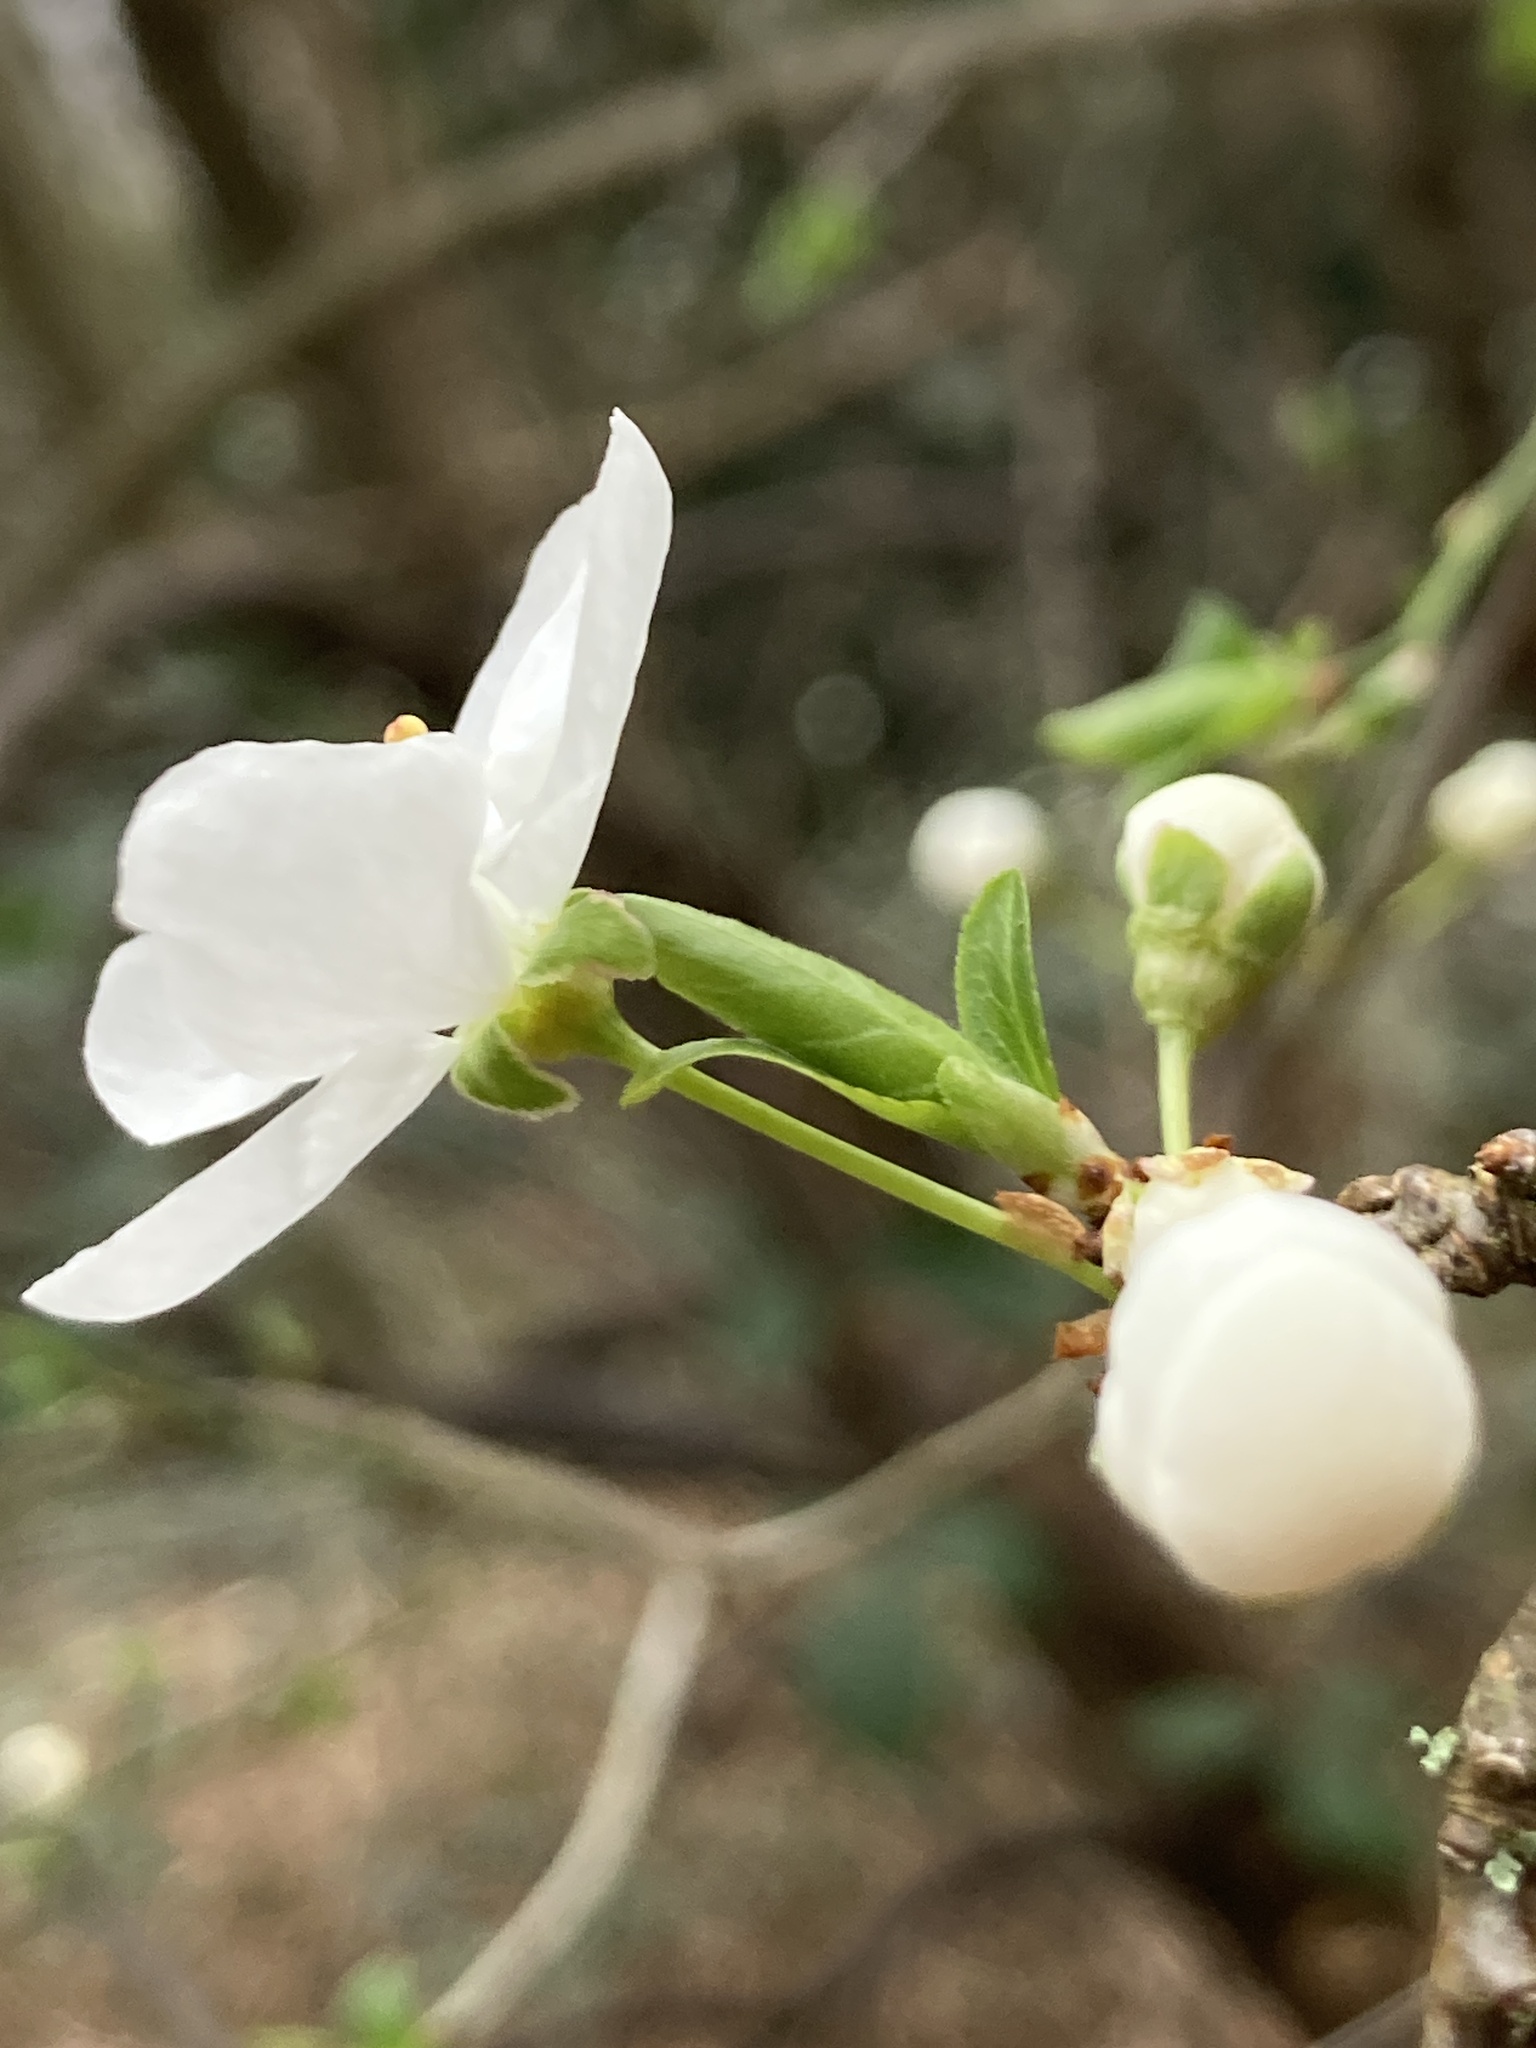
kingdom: Plantae
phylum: Tracheophyta
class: Magnoliopsida
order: Rosales
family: Rosaceae
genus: Prunus
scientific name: Prunus cerasifera
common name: Cherry plum
